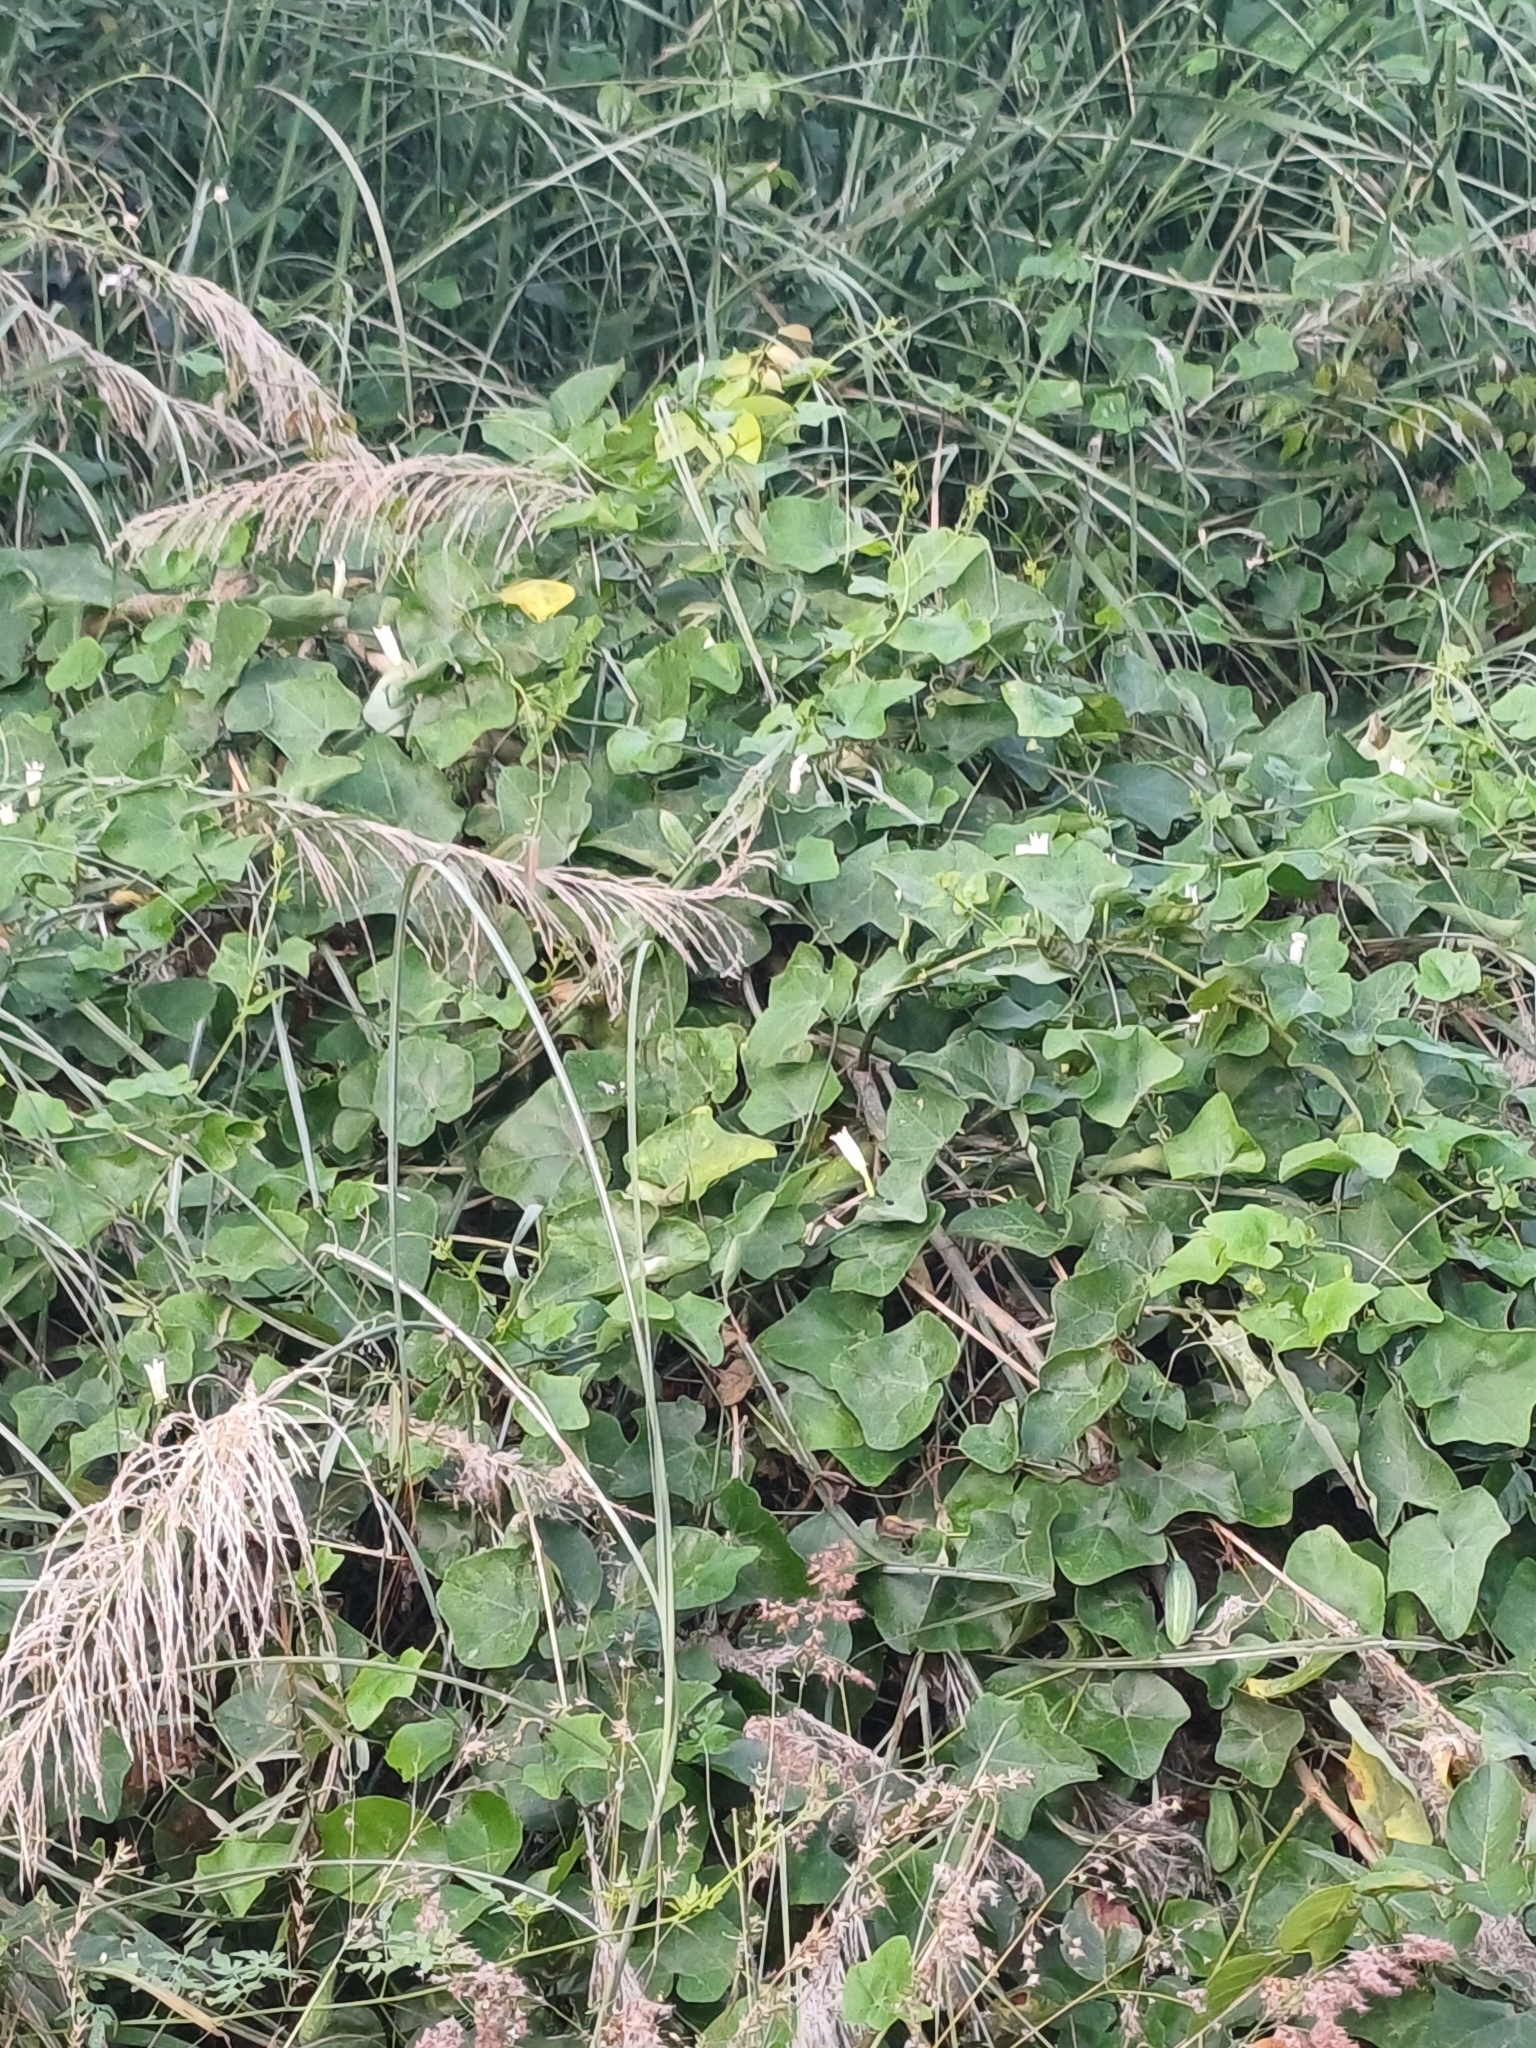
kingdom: Plantae
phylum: Tracheophyta
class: Magnoliopsida
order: Cucurbitales
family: Cucurbitaceae
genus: Coccinia
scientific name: Coccinia grandis
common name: Ivy gourd
